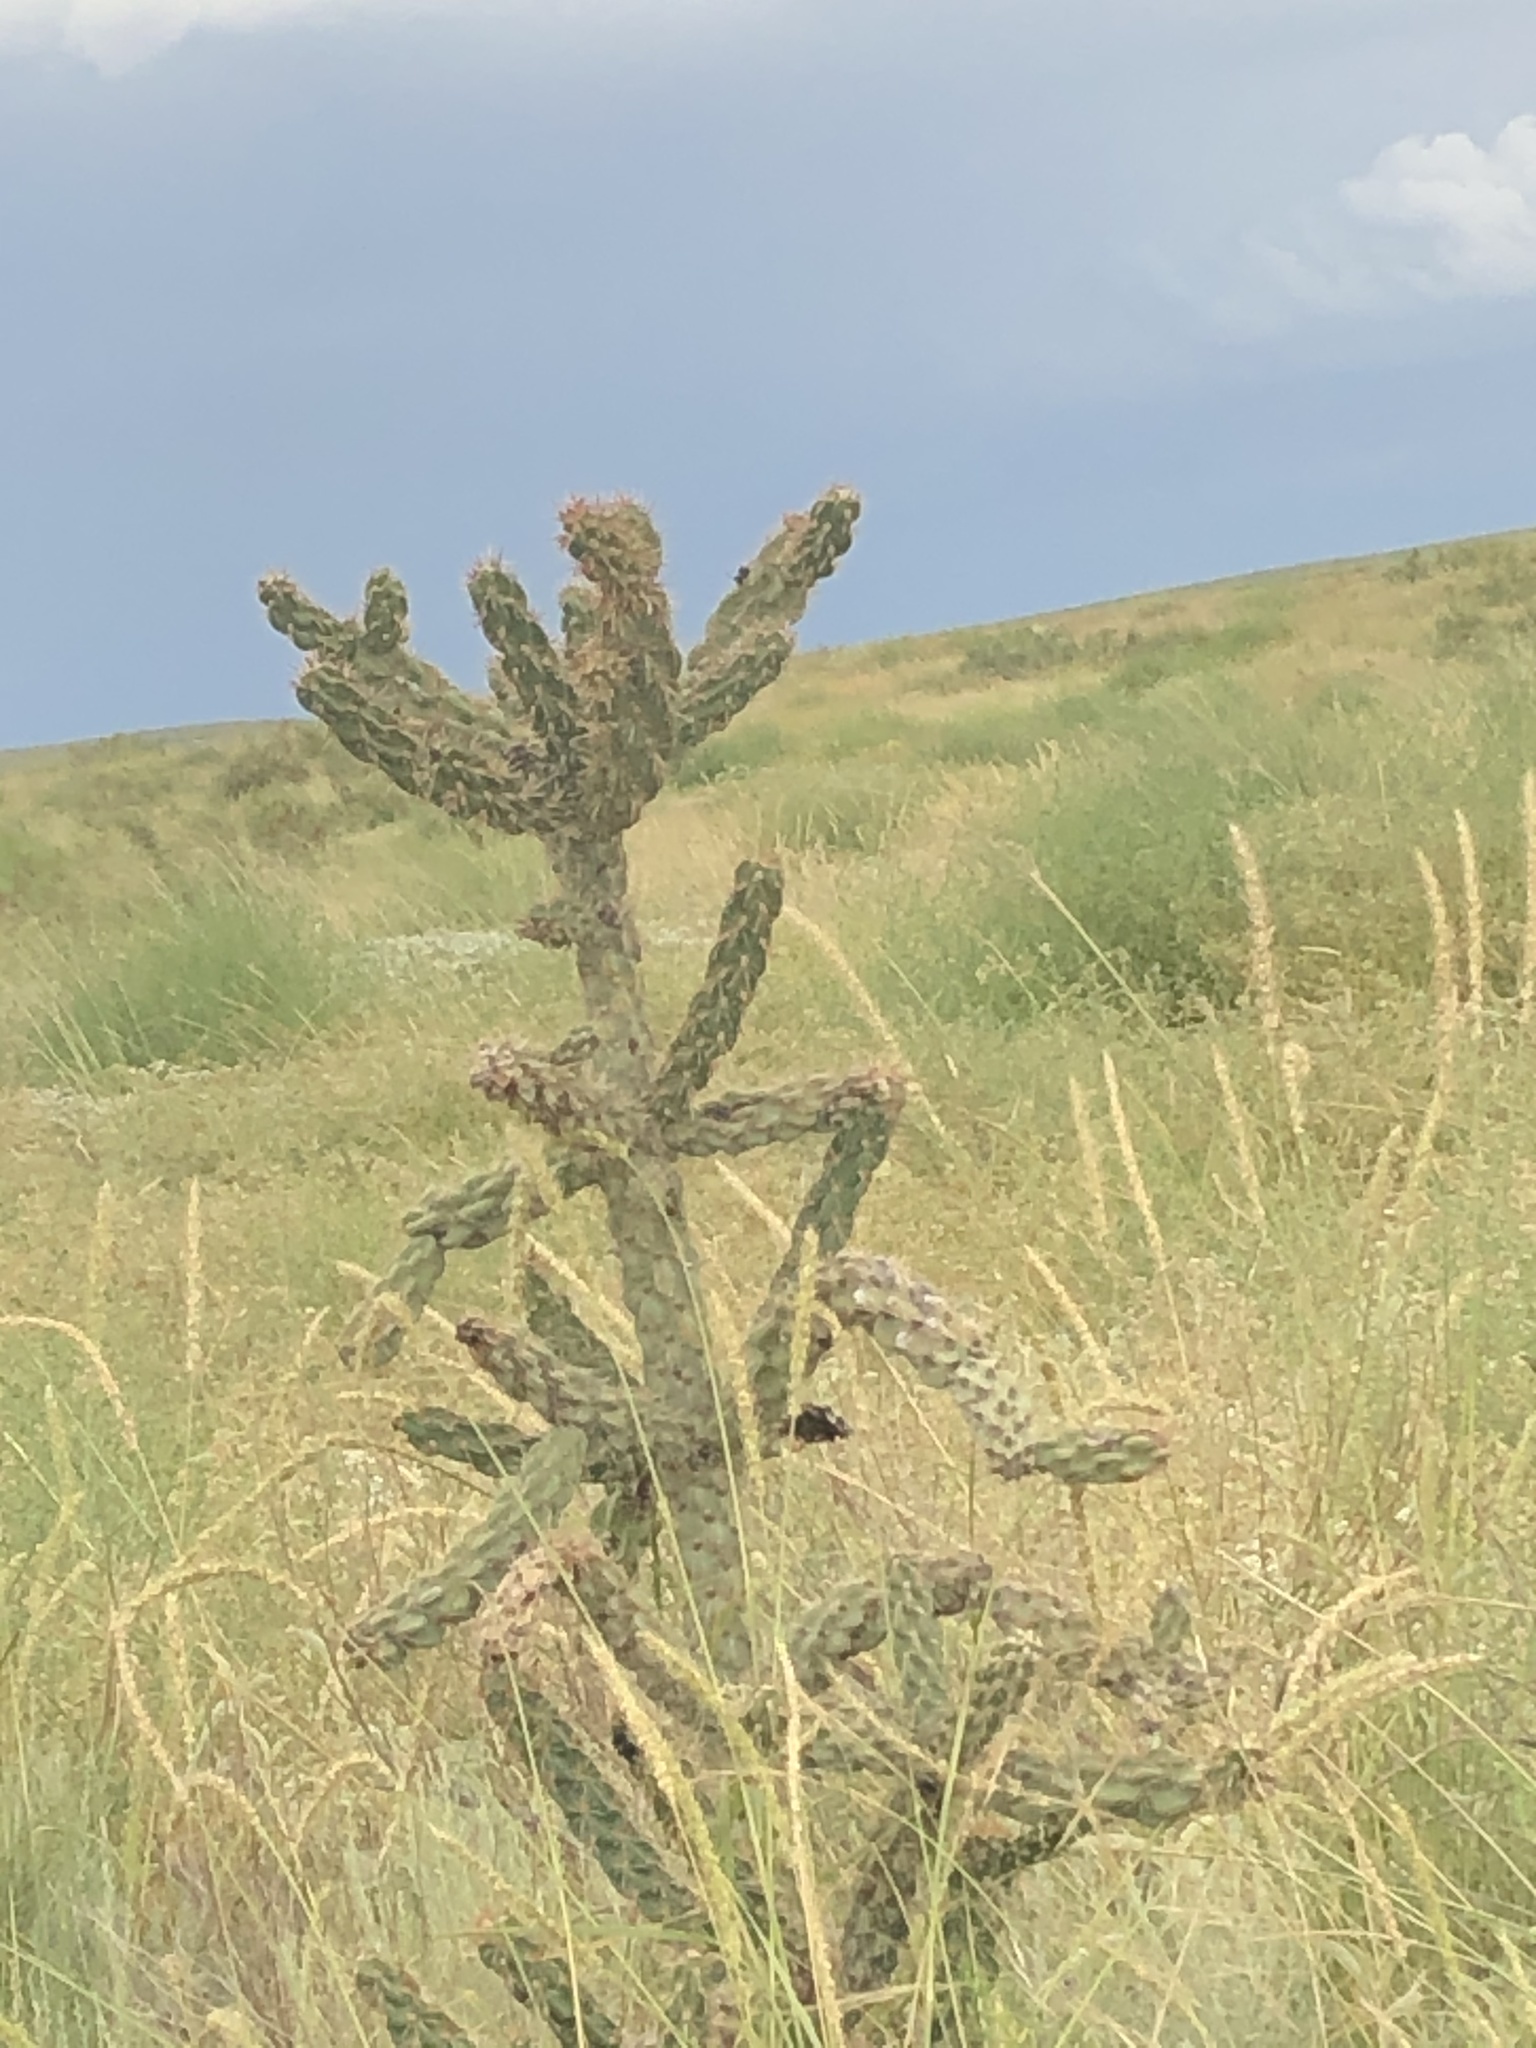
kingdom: Plantae
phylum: Tracheophyta
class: Magnoliopsida
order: Caryophyllales
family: Cactaceae
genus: Cylindropuntia
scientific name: Cylindropuntia imbricata
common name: Candelabrum cactus
